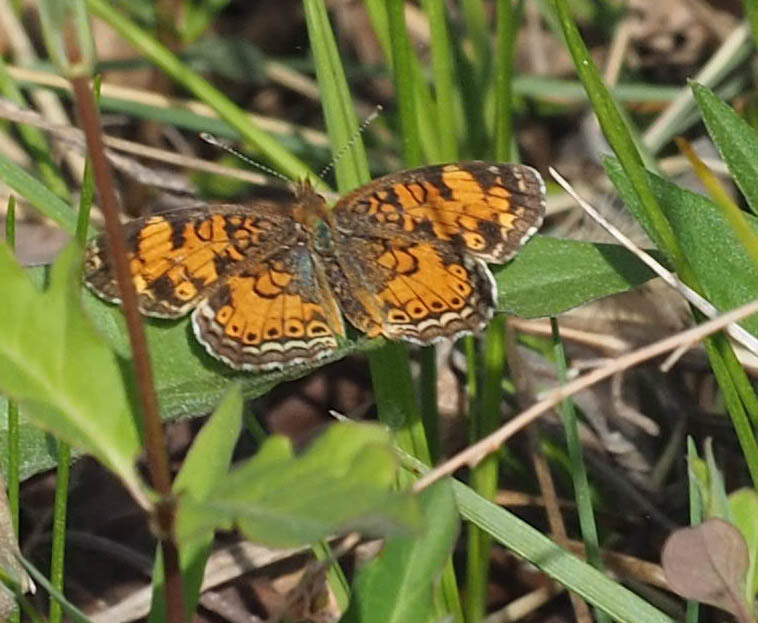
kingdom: Animalia
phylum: Arthropoda
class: Insecta
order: Lepidoptera
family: Nymphalidae
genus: Phyciodes
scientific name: Phyciodes tharos
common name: Pearl crescent
